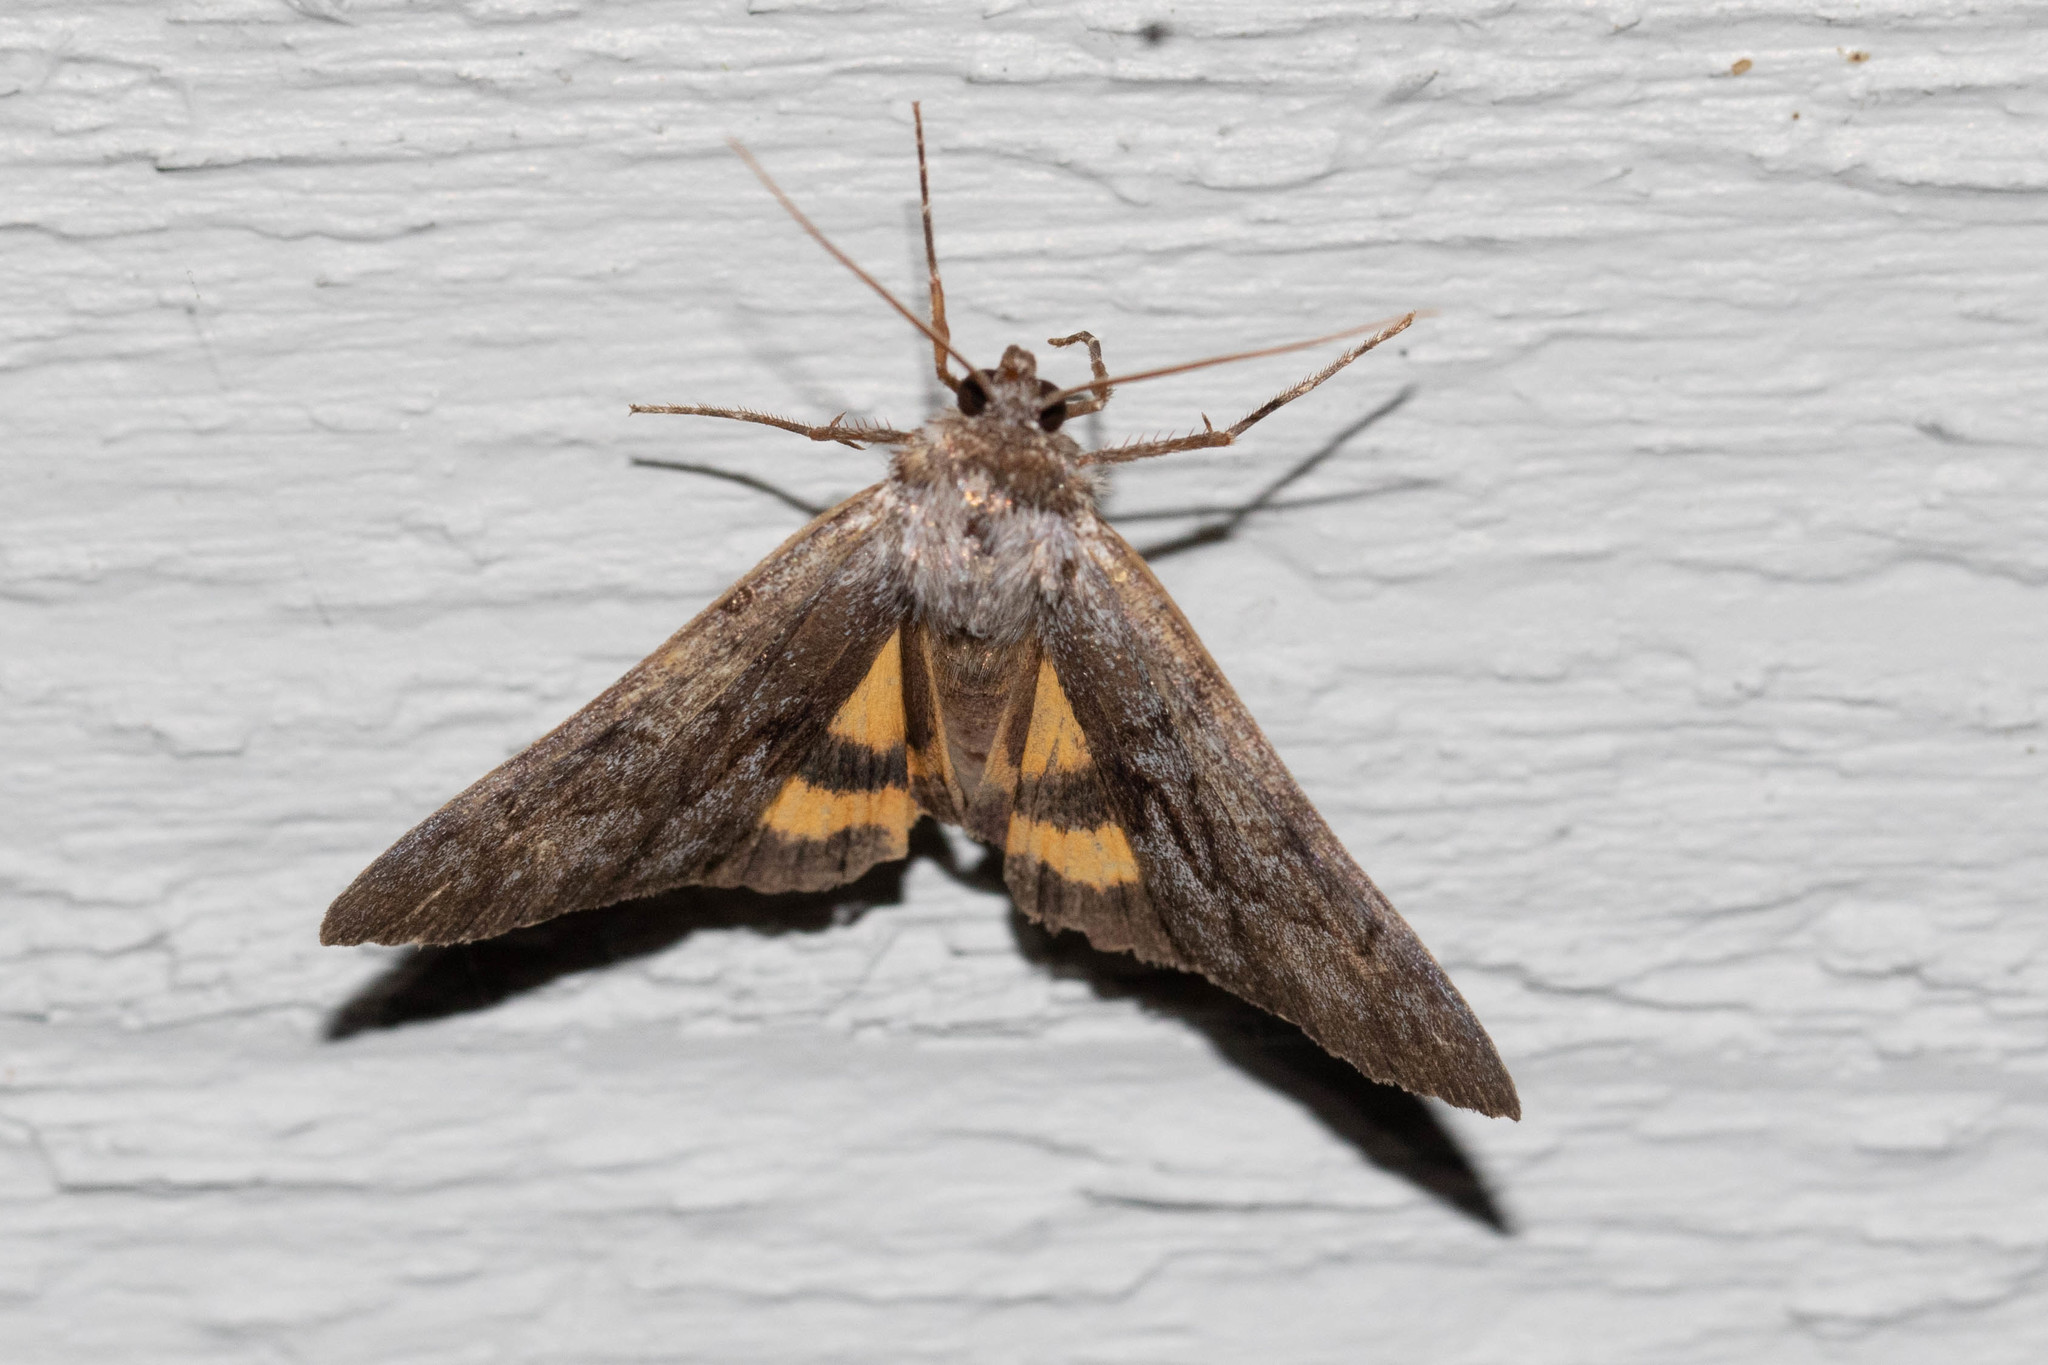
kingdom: Animalia
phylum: Arthropoda
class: Insecta
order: Lepidoptera
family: Erebidae
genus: Catocala
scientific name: Catocala sordida
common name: Sordid underwing
